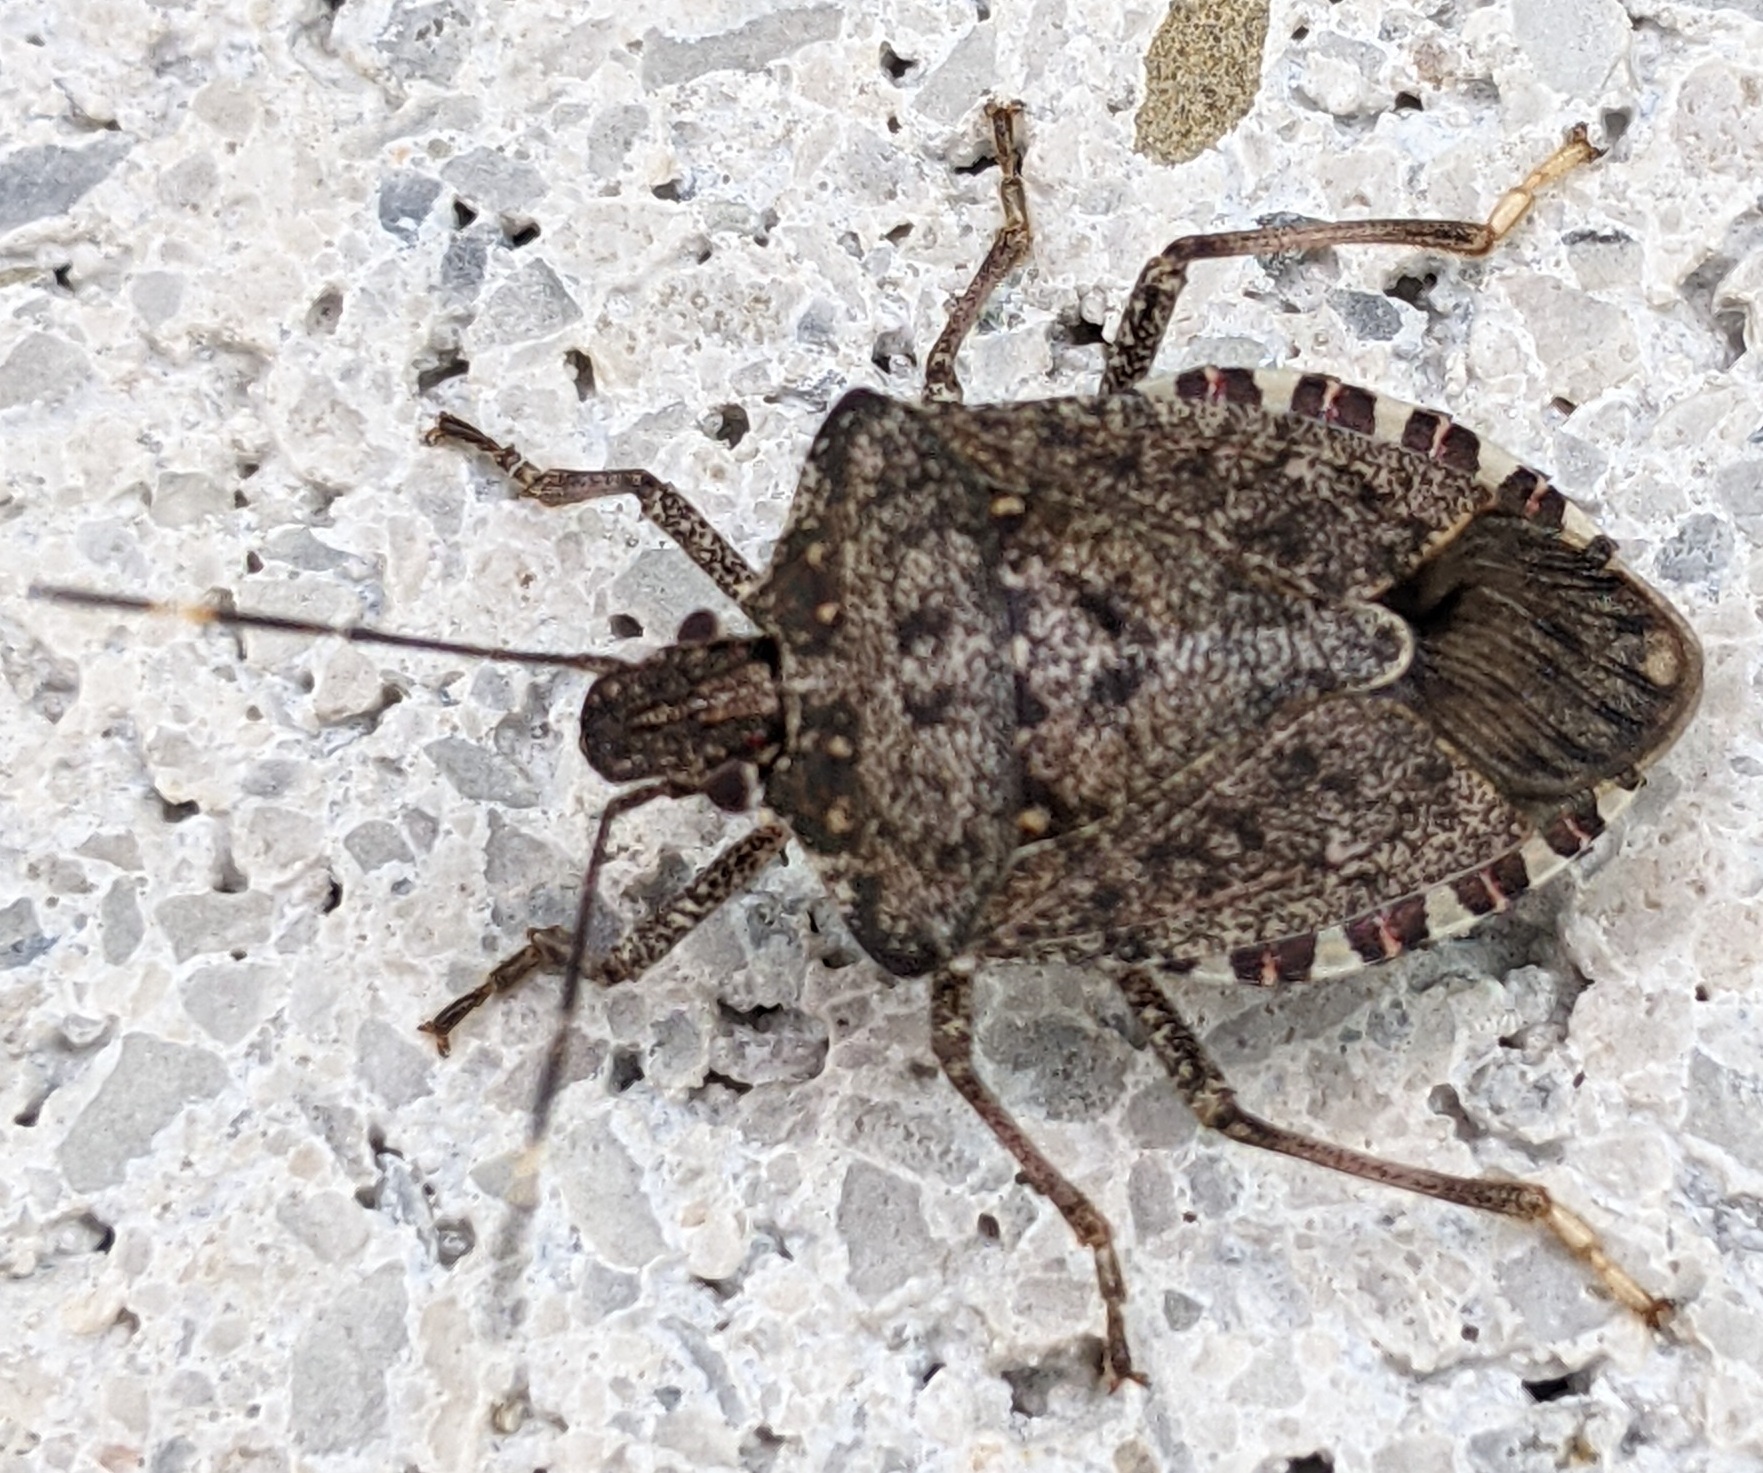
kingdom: Animalia
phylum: Arthropoda
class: Insecta
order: Hemiptera
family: Pentatomidae
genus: Halyomorpha
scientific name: Halyomorpha halys
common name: Brown marmorated stink bug
